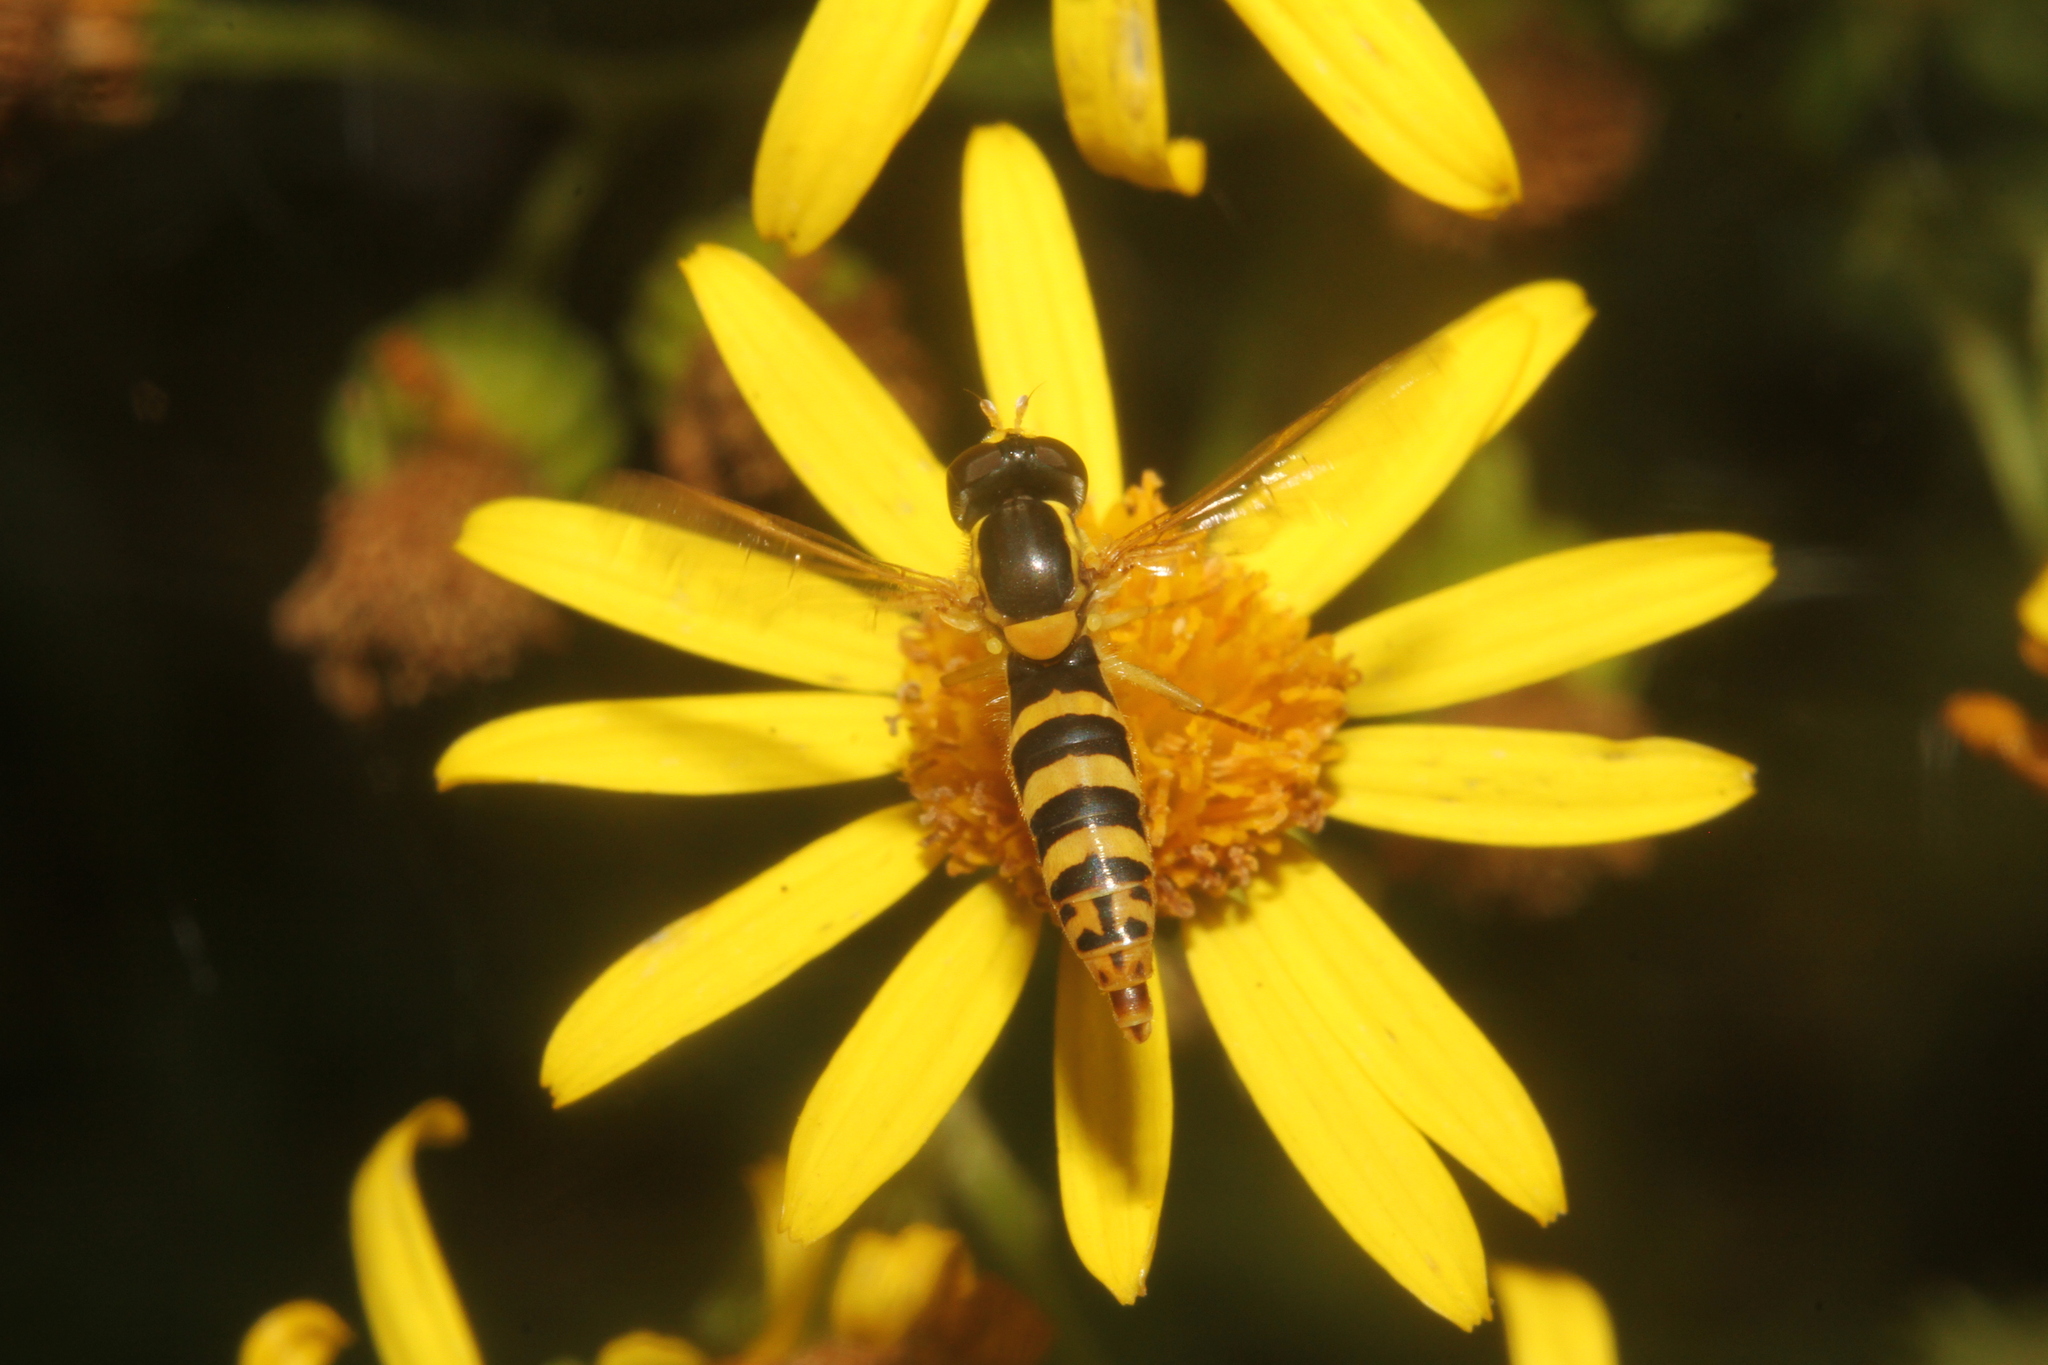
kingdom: Animalia
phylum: Arthropoda
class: Insecta
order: Diptera
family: Syrphidae
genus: Sphaerophoria
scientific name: Sphaerophoria
